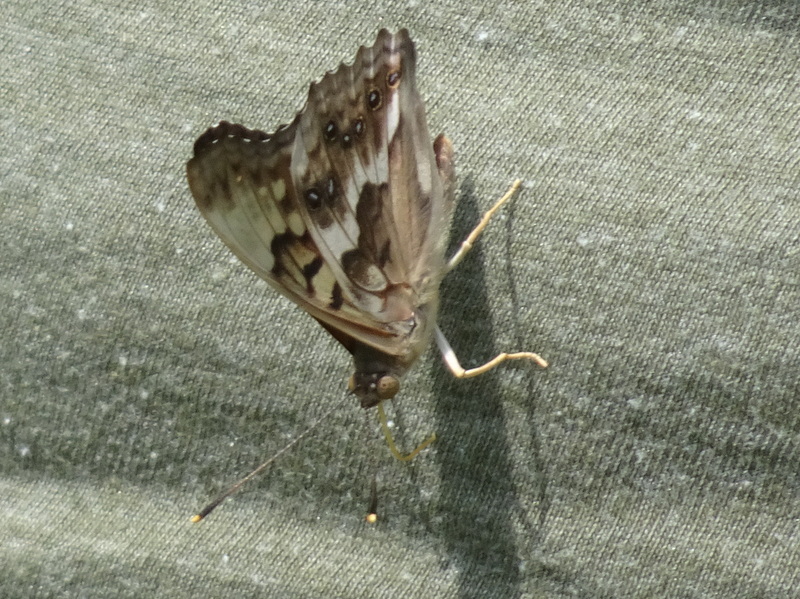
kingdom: Animalia
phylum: Arthropoda
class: Insecta
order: Lepidoptera
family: Nymphalidae
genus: Asterocampa
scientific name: Asterocampa clyton
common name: Tawny emperor
